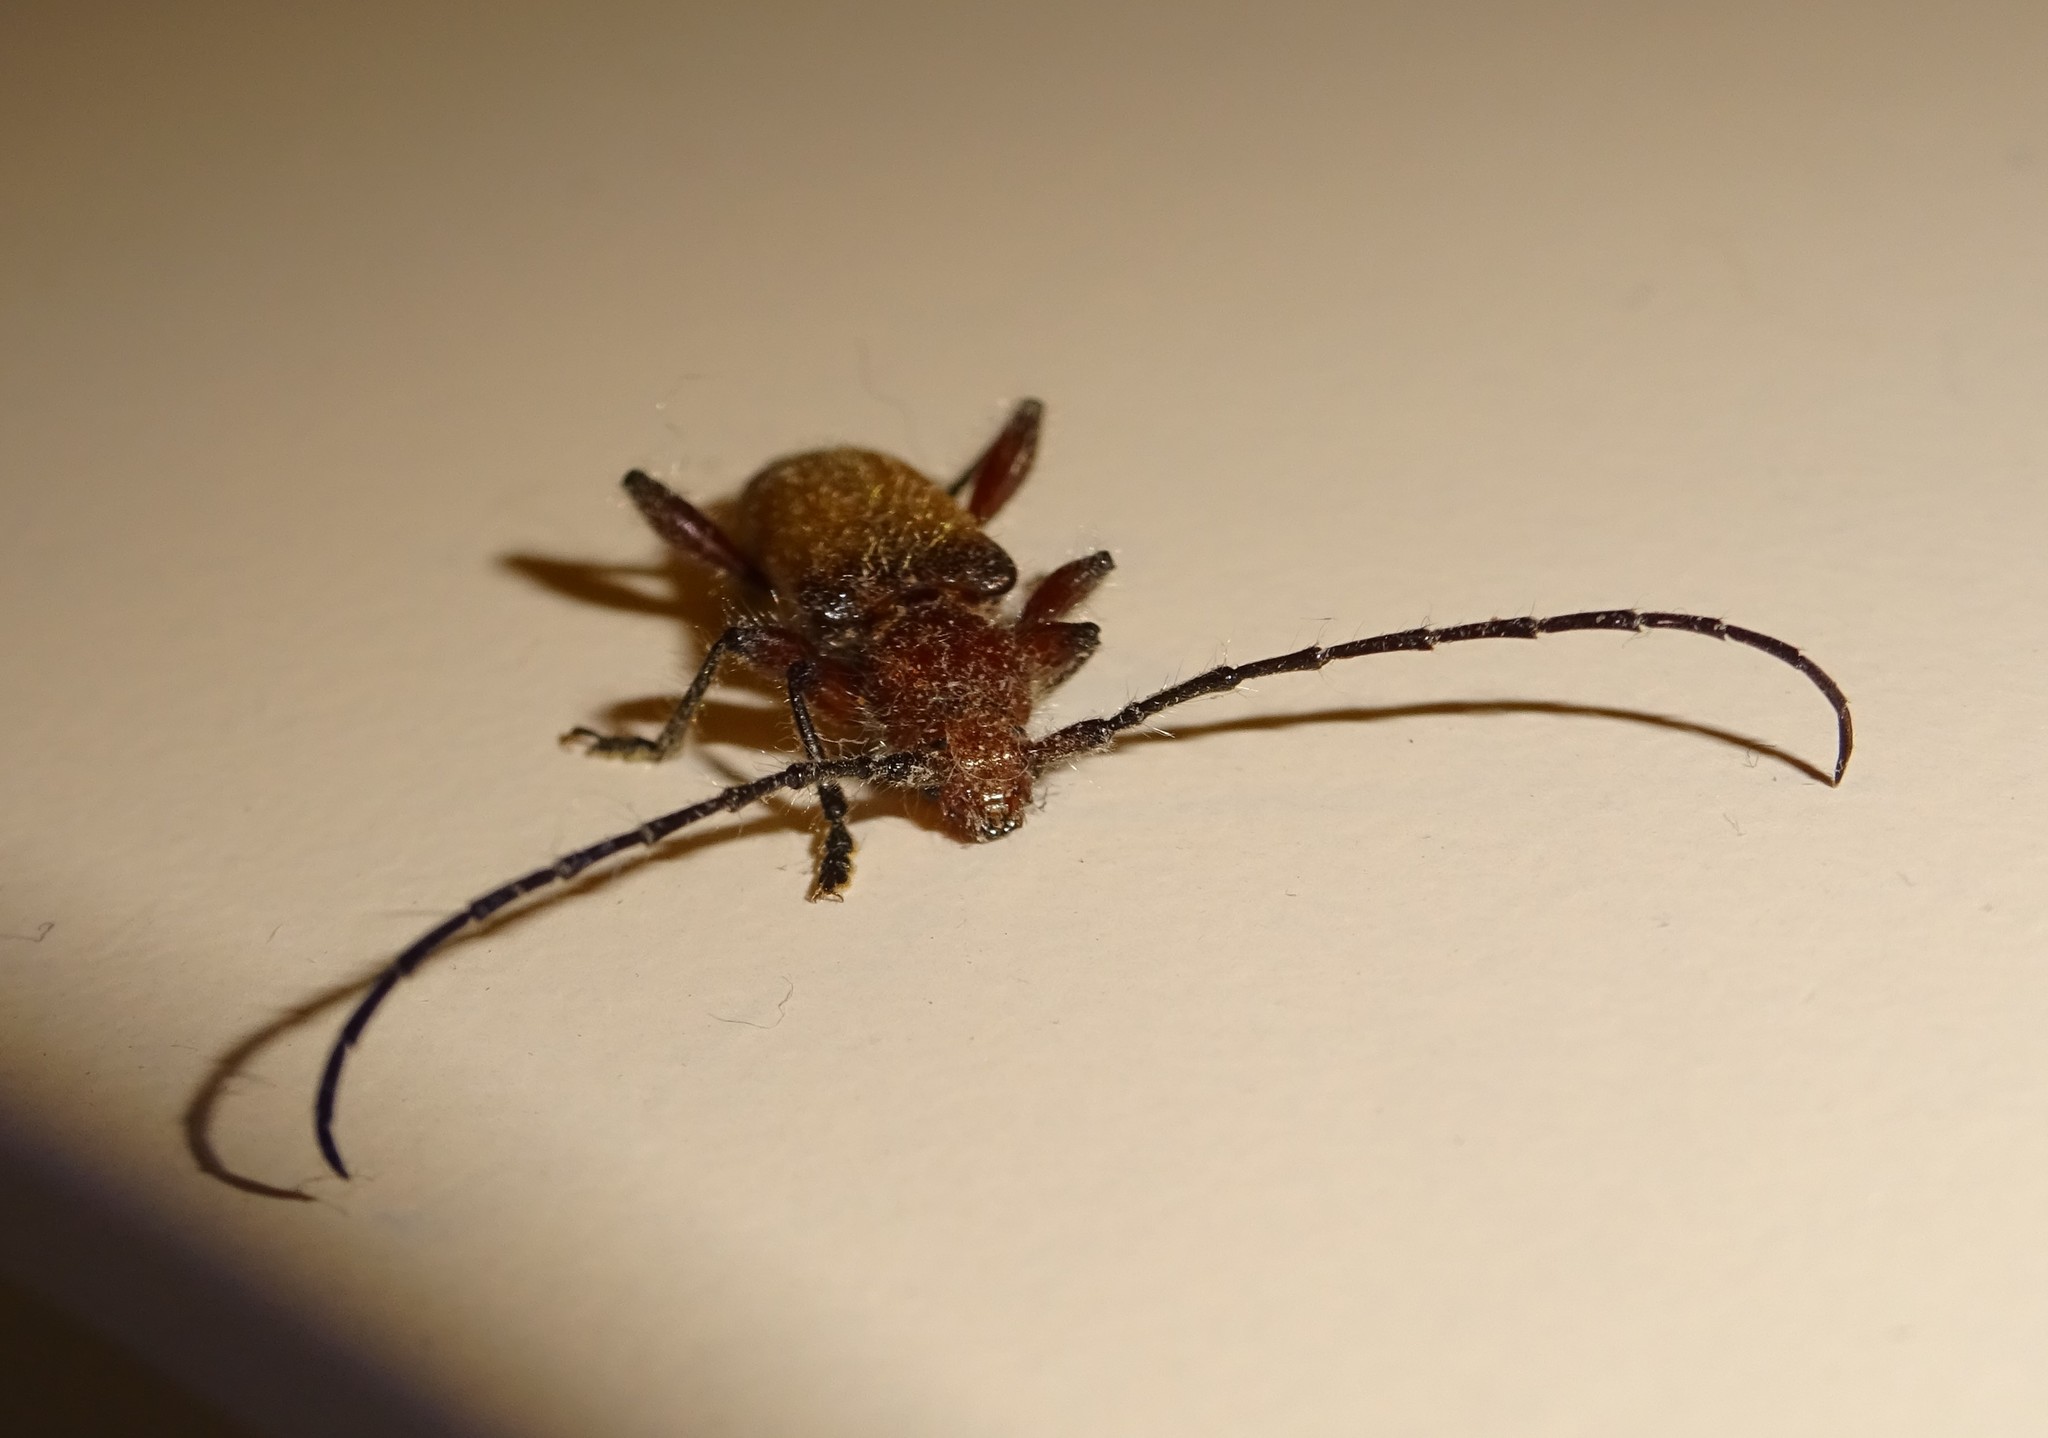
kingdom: Animalia
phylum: Arthropoda
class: Insecta
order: Coleoptera
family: Cerambycidae
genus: Callidiellum
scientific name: Callidiellum villosulum
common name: Longhorn beetle
